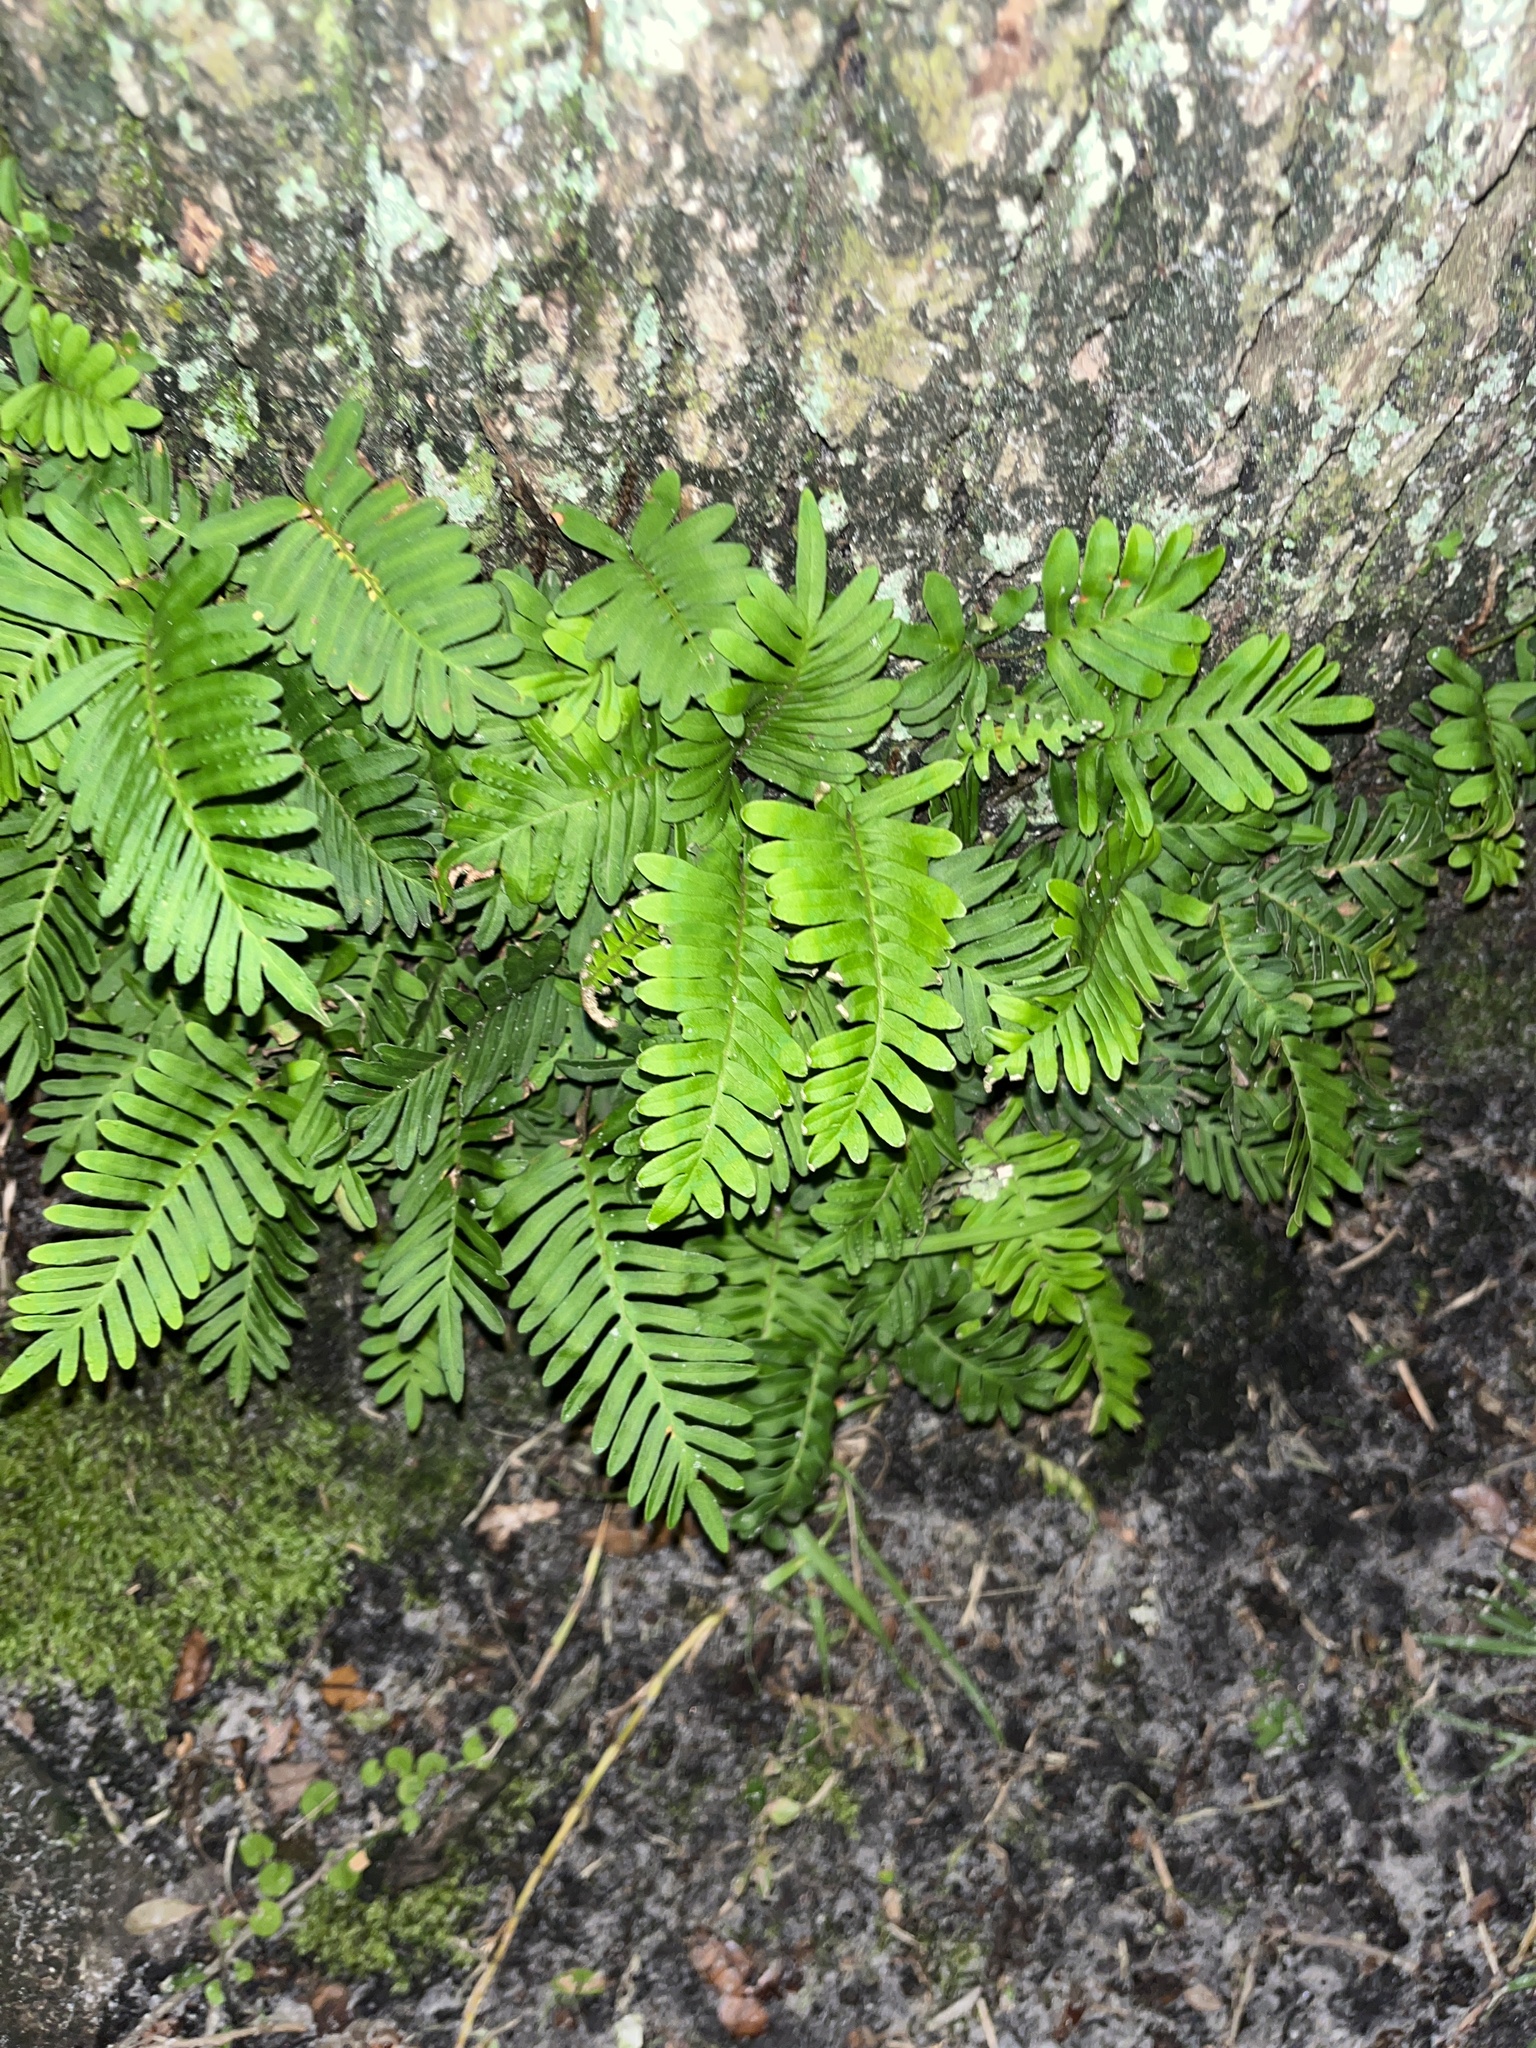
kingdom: Plantae
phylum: Tracheophyta
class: Polypodiopsida
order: Polypodiales
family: Polypodiaceae
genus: Pleopeltis
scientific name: Pleopeltis michauxiana
